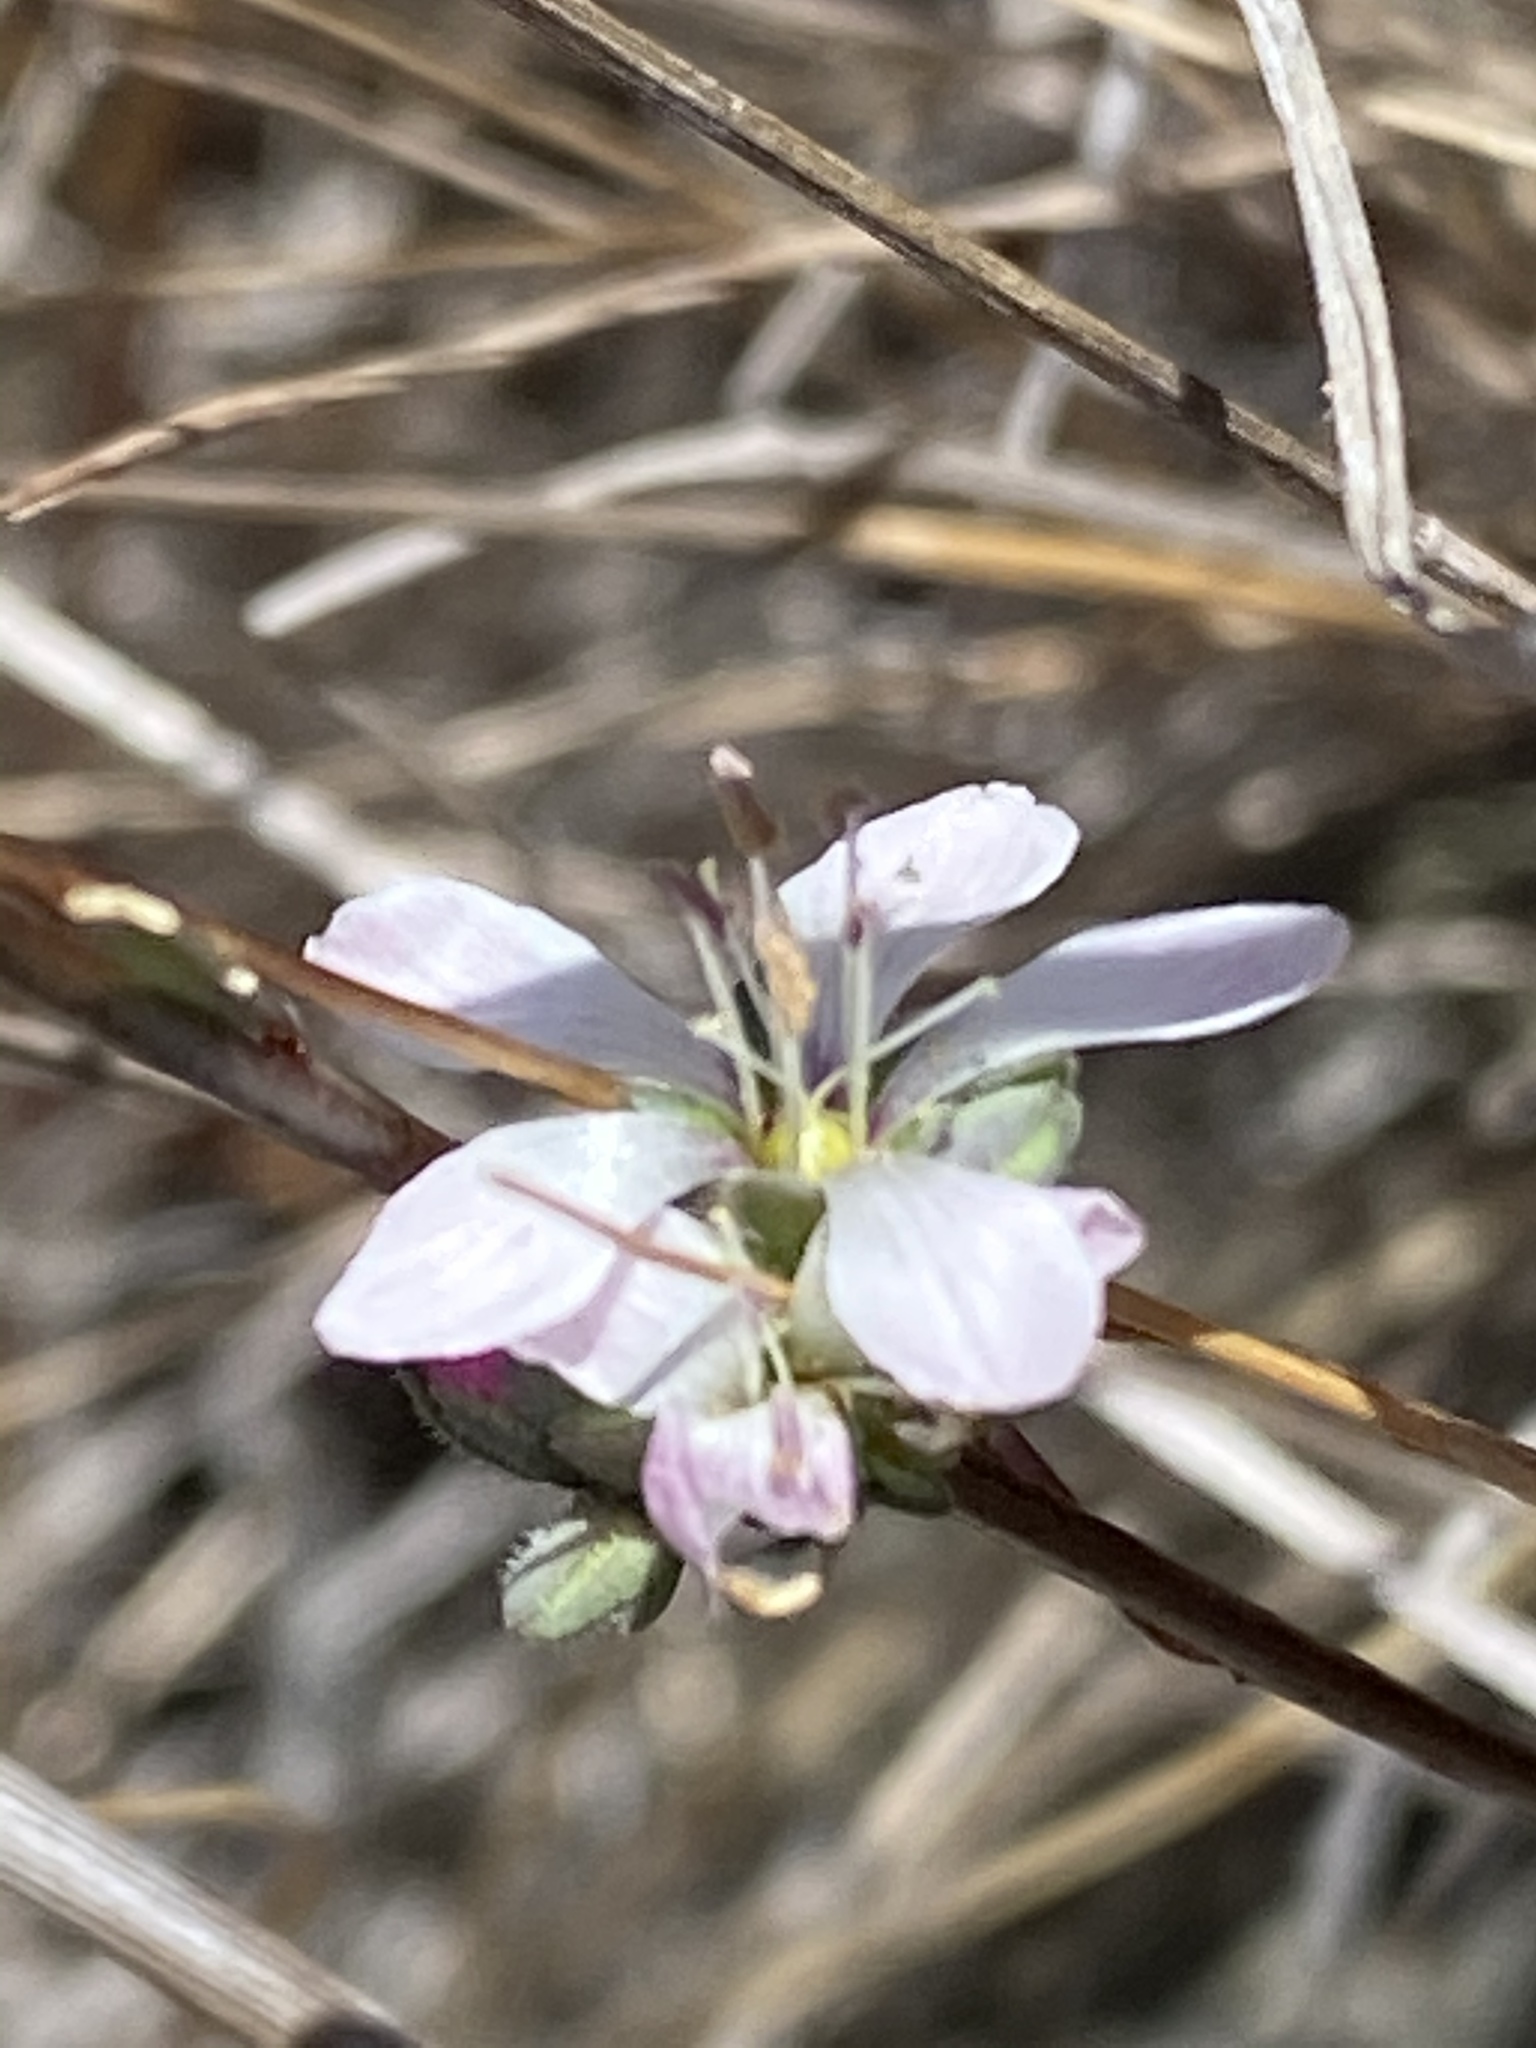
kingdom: Plantae
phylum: Tracheophyta
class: Magnoliopsida
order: Malpighiales
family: Linaceae
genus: Hesperolinon
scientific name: Hesperolinon congestum
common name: Marin dwarf-flax
